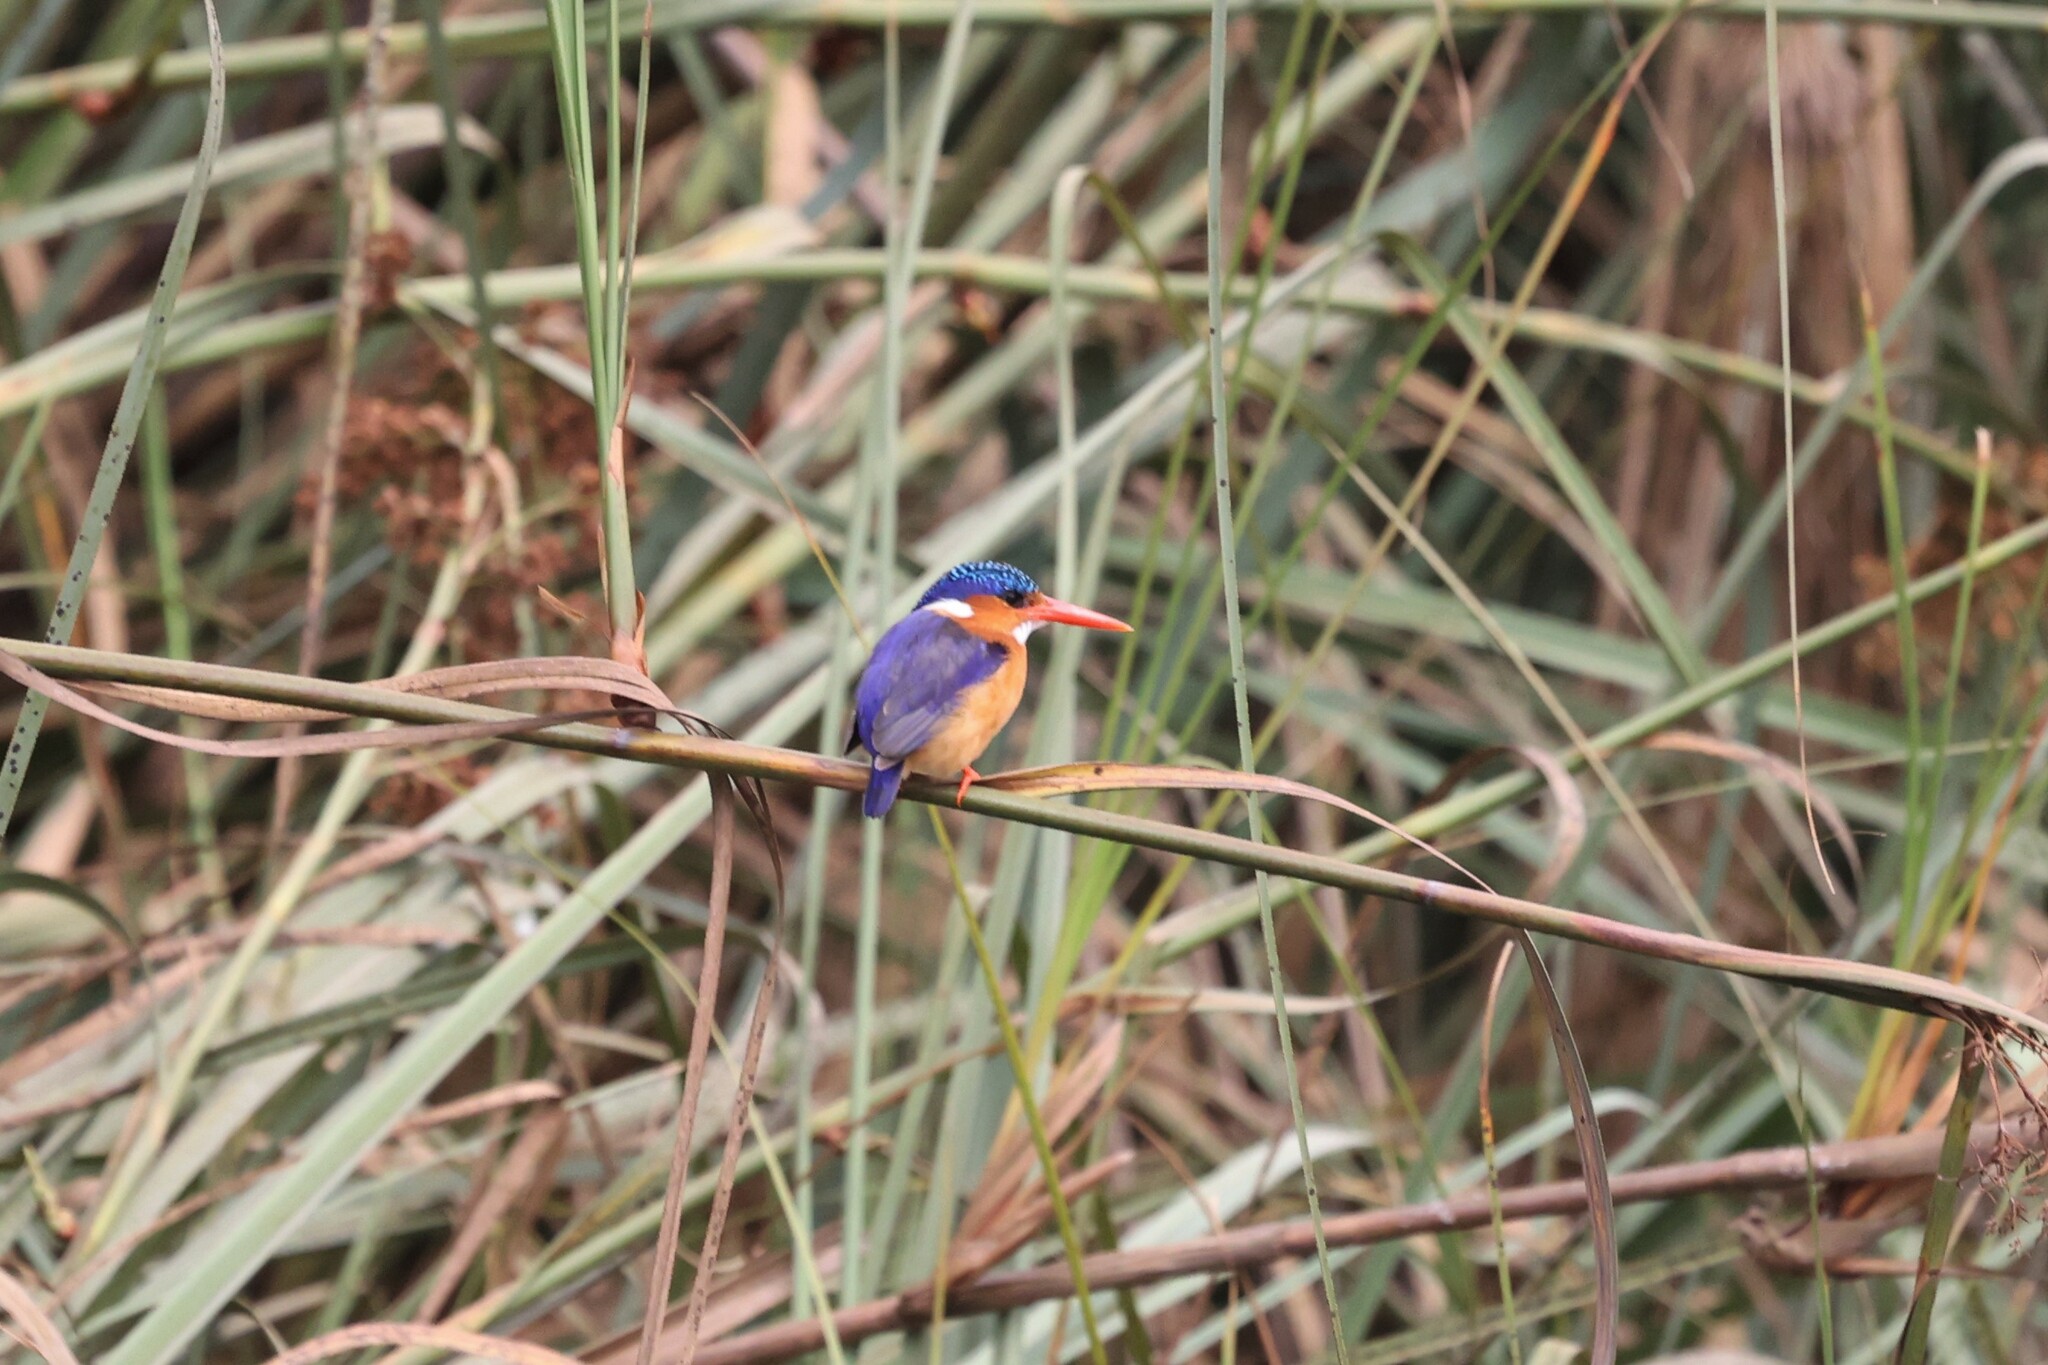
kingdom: Animalia
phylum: Chordata
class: Aves
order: Coraciiformes
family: Alcedinidae
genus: Corythornis
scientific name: Corythornis cristatus
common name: Malachite kingfisher
